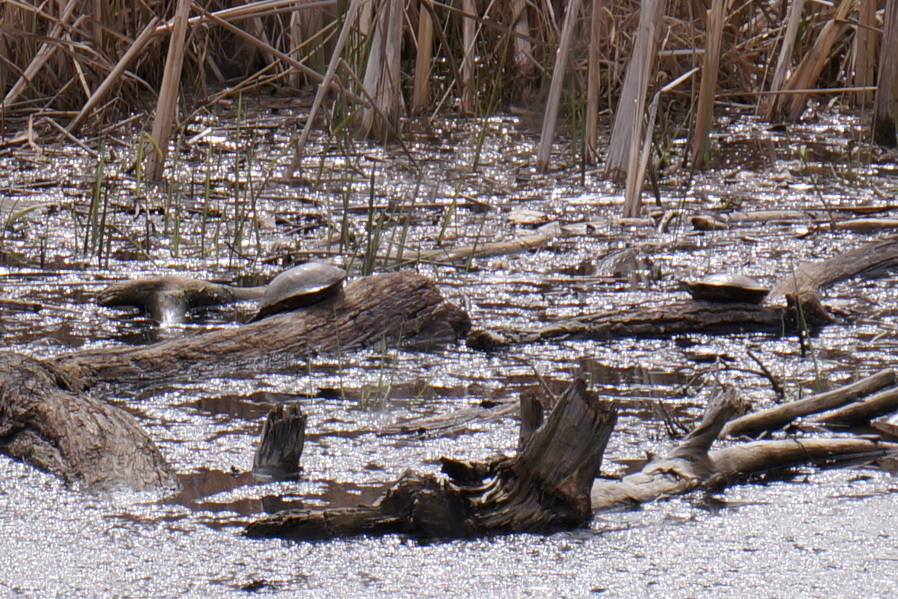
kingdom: Animalia
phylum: Chordata
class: Testudines
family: Emydidae
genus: Chrysemys
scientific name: Chrysemys picta
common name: Painted turtle
